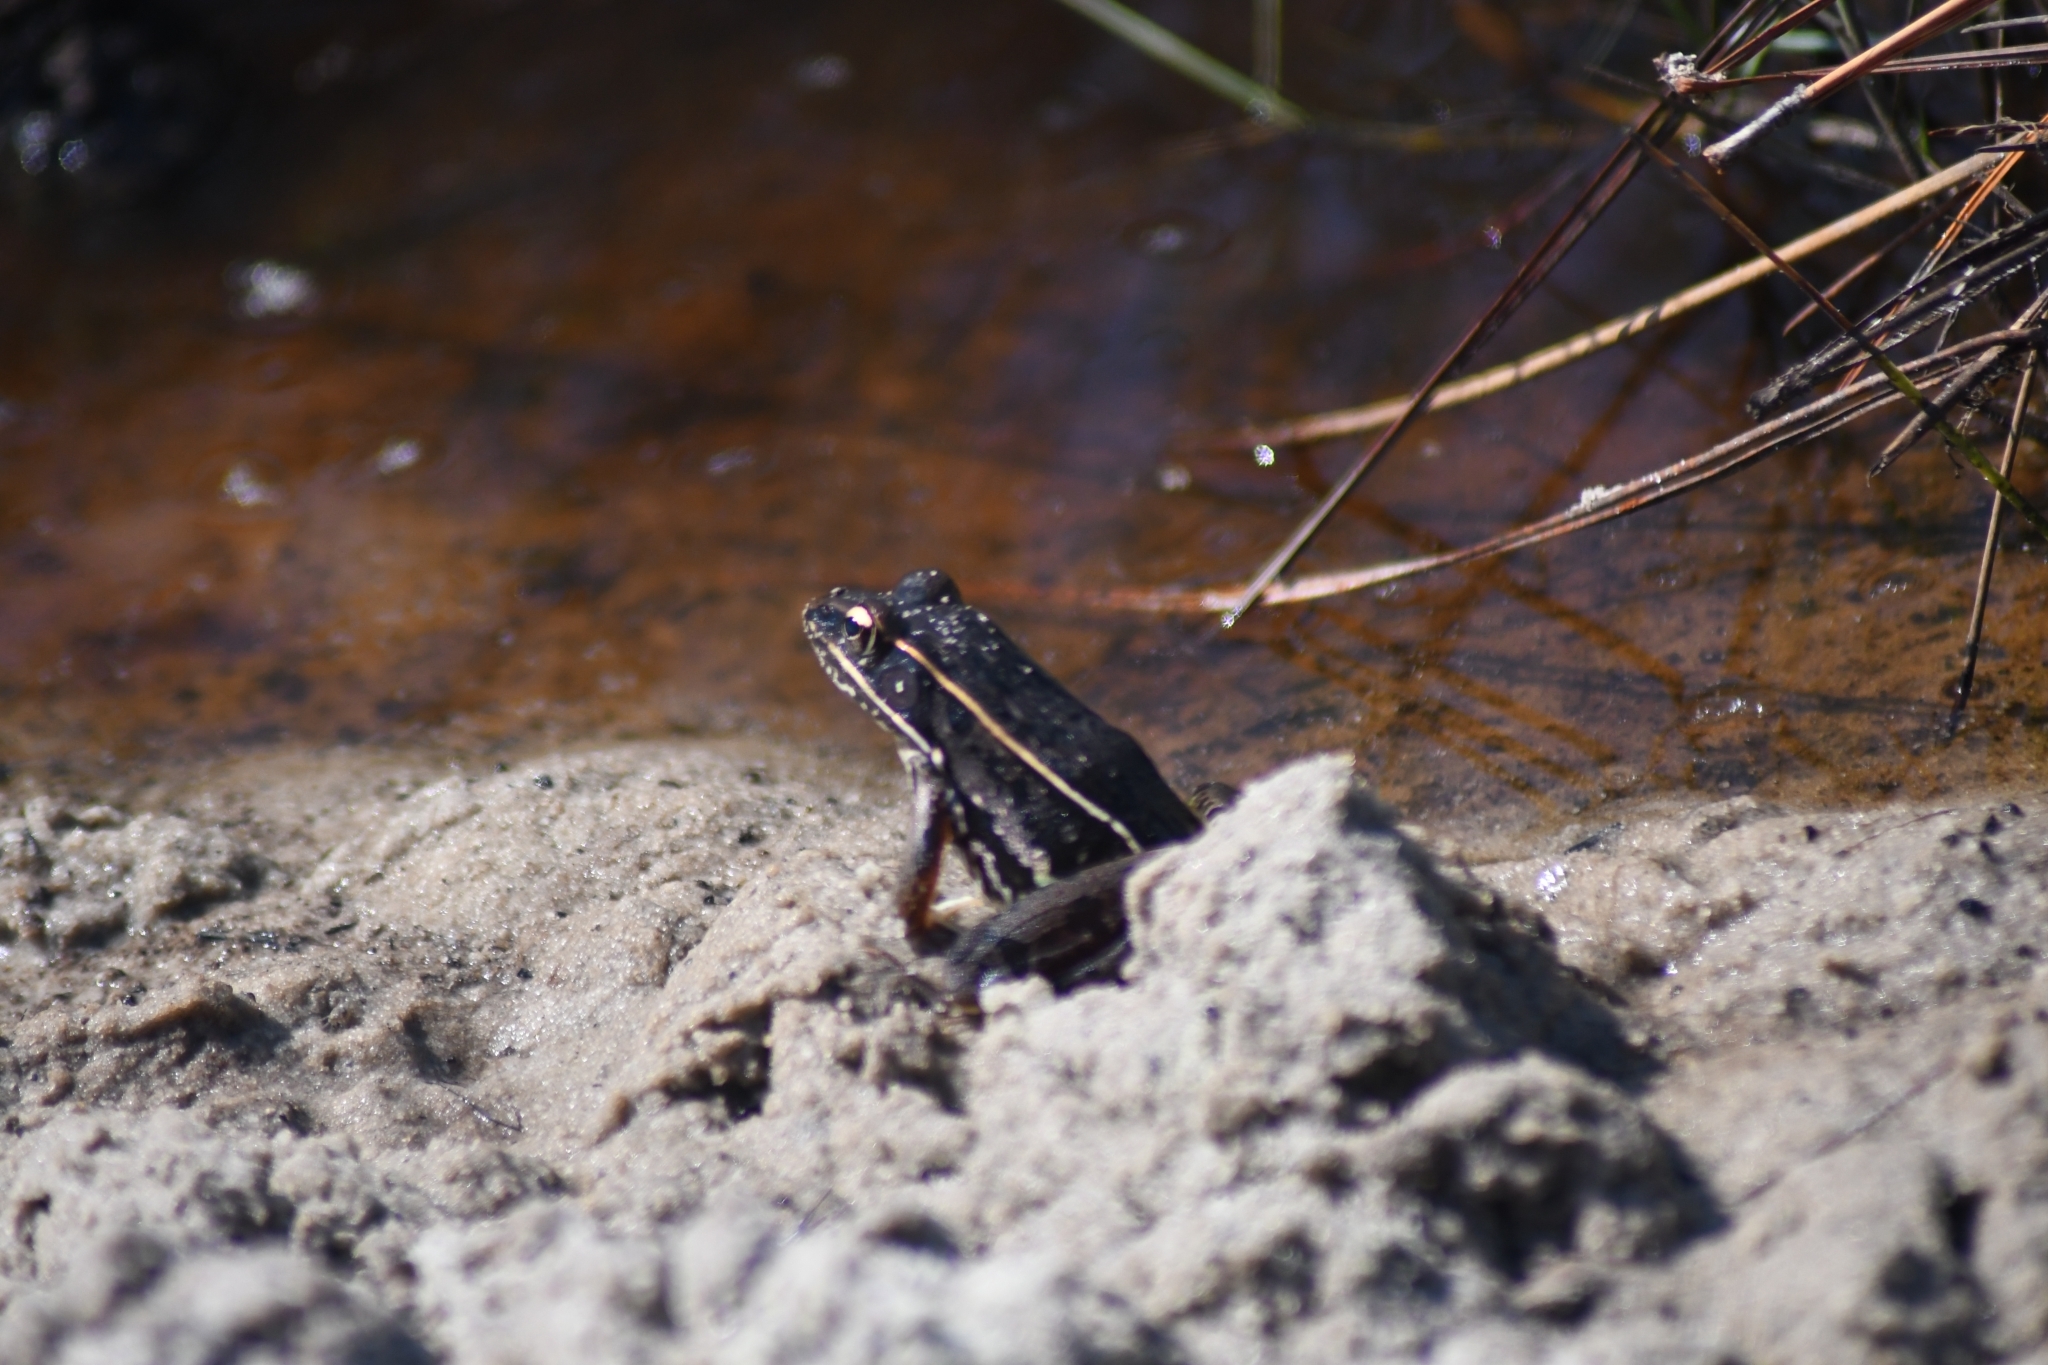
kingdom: Animalia
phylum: Chordata
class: Amphibia
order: Anura
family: Ranidae
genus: Lithobates
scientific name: Lithobates sphenocephalus
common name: Southern leopard frog
